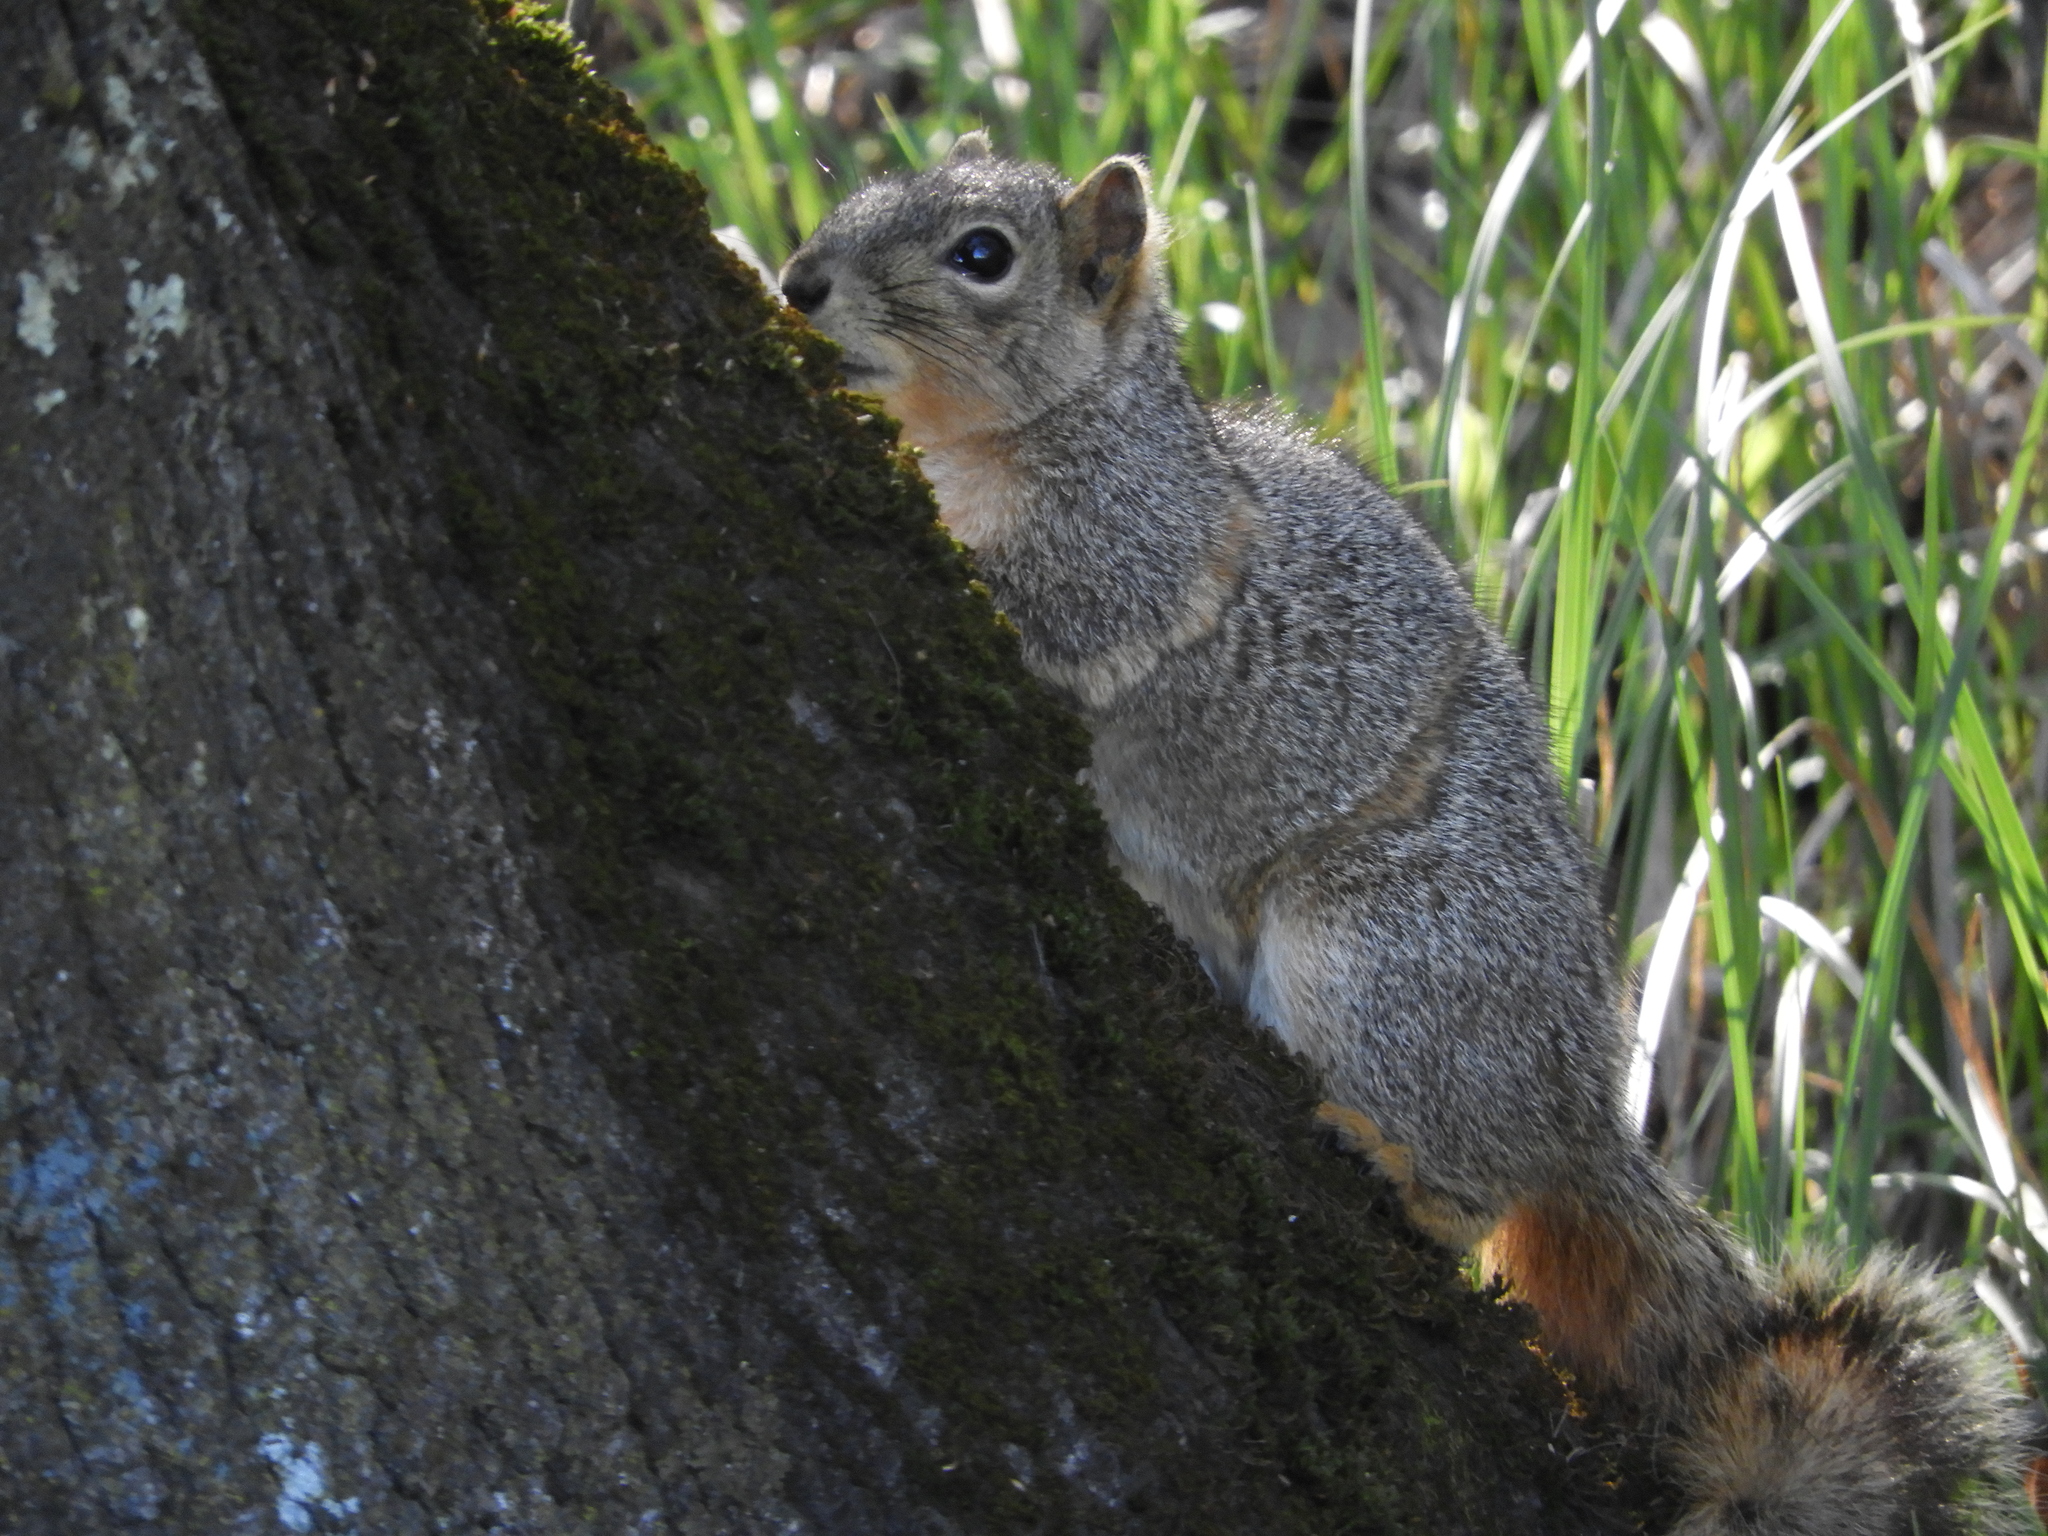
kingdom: Animalia
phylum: Chordata
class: Mammalia
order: Rodentia
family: Sciuridae
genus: Sciurus
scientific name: Sciurus niger
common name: Fox squirrel
